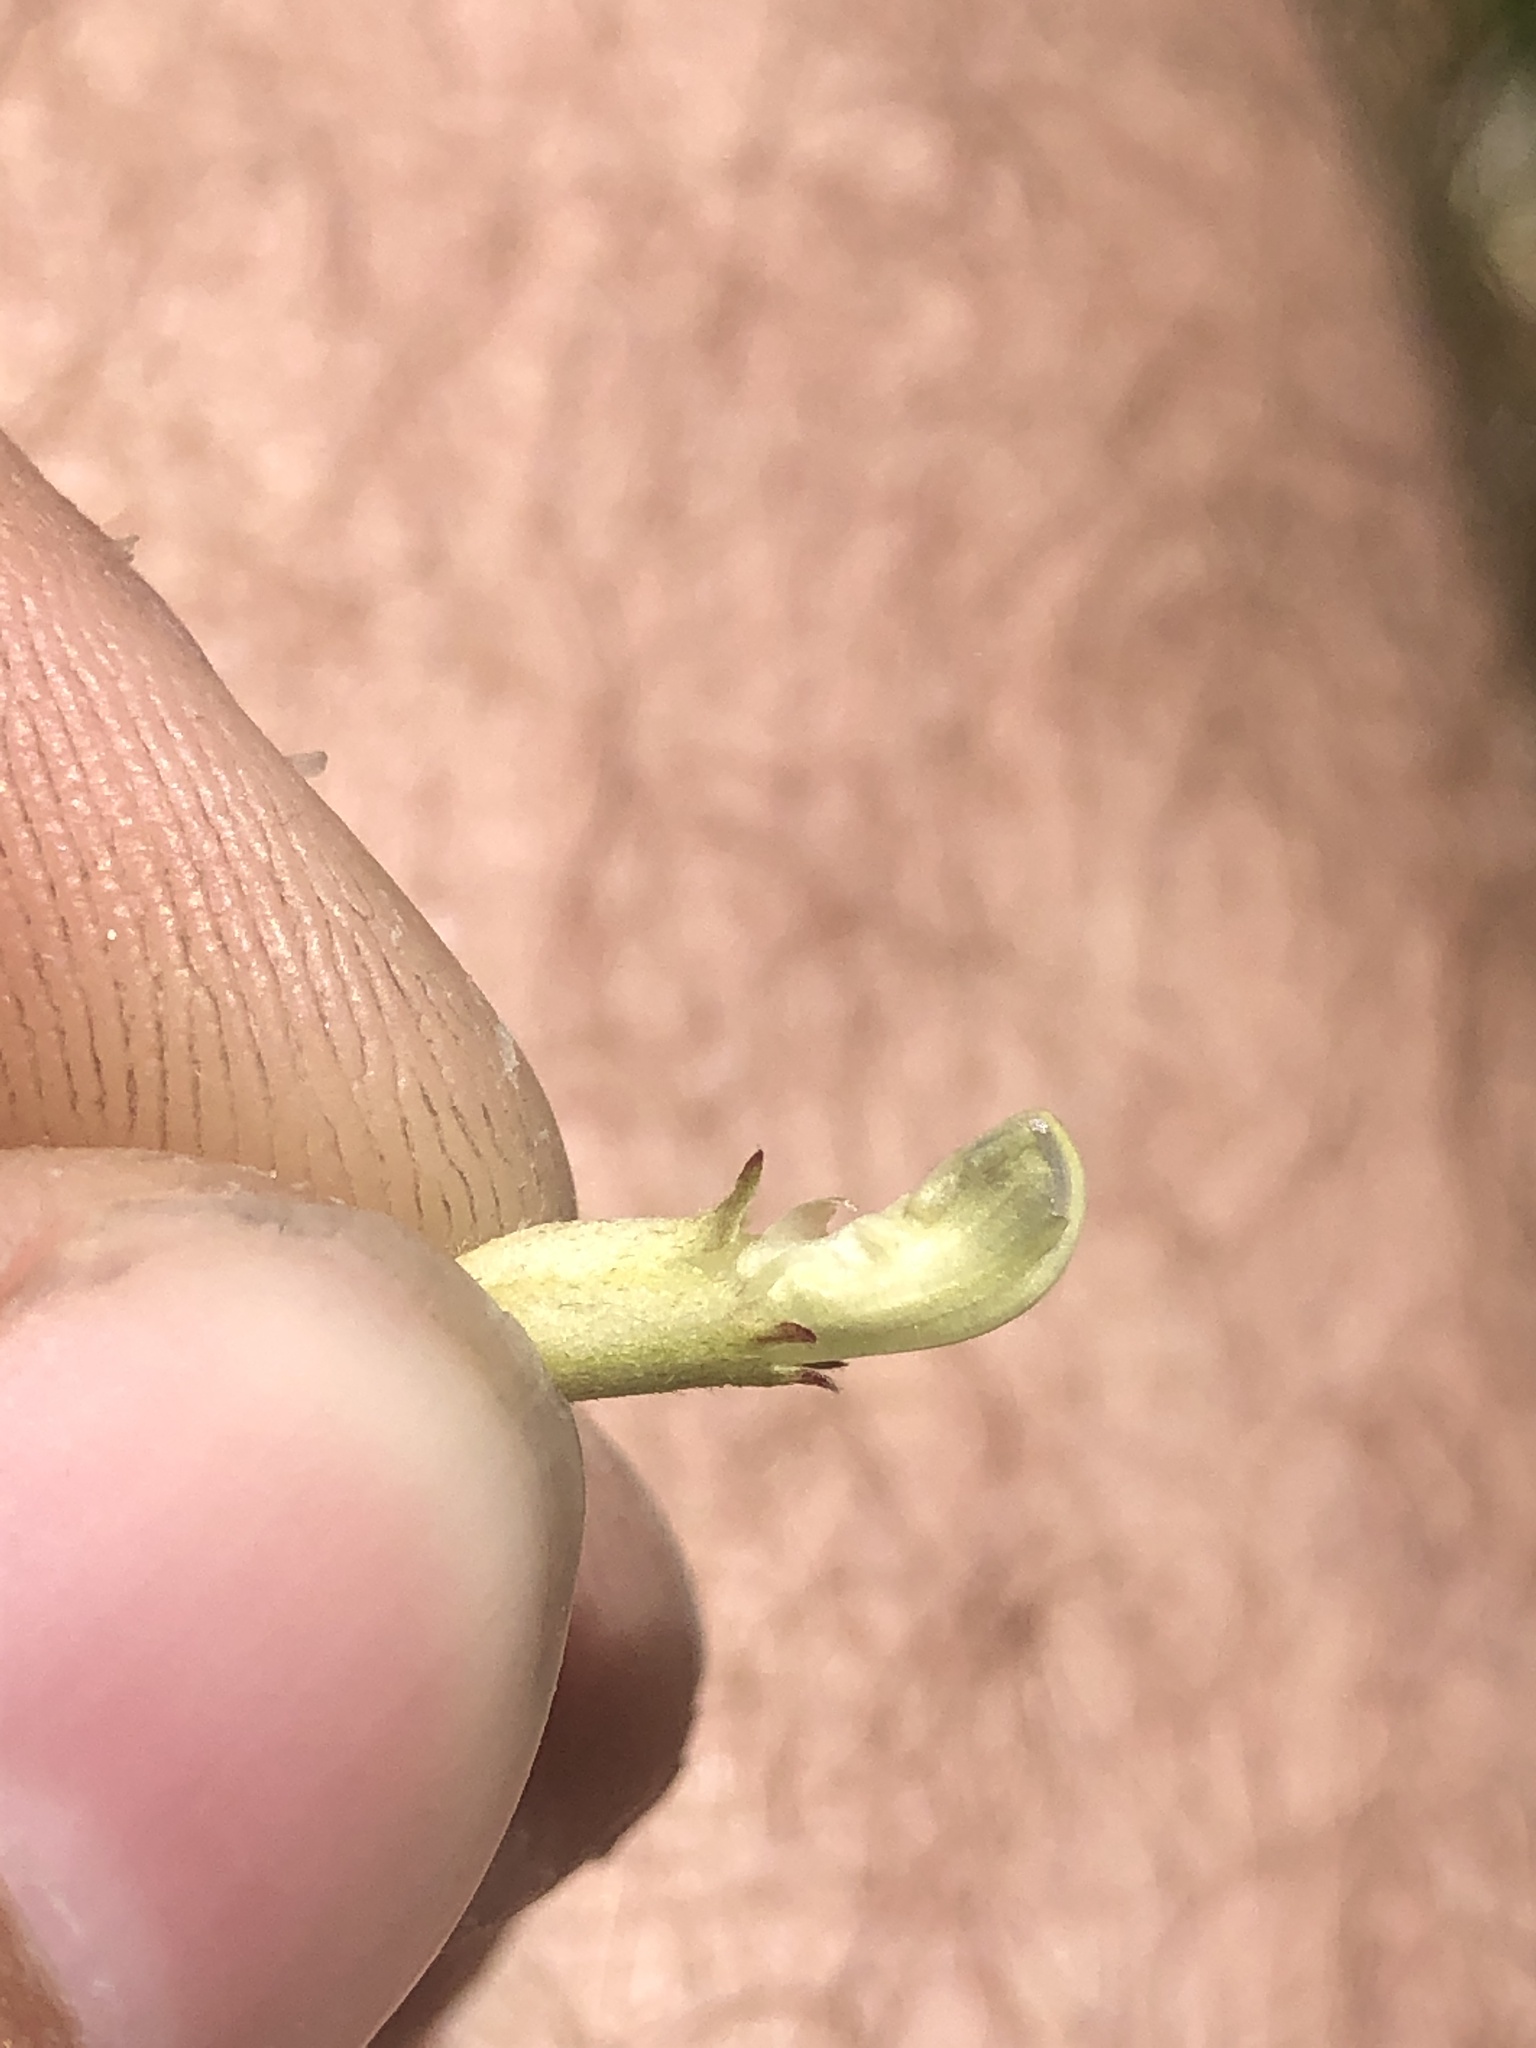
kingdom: Plantae
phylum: Tracheophyta
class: Magnoliopsida
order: Fabales
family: Fabaceae
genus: Astragalus
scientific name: Astragalus canadensis
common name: Canada milk-vetch
